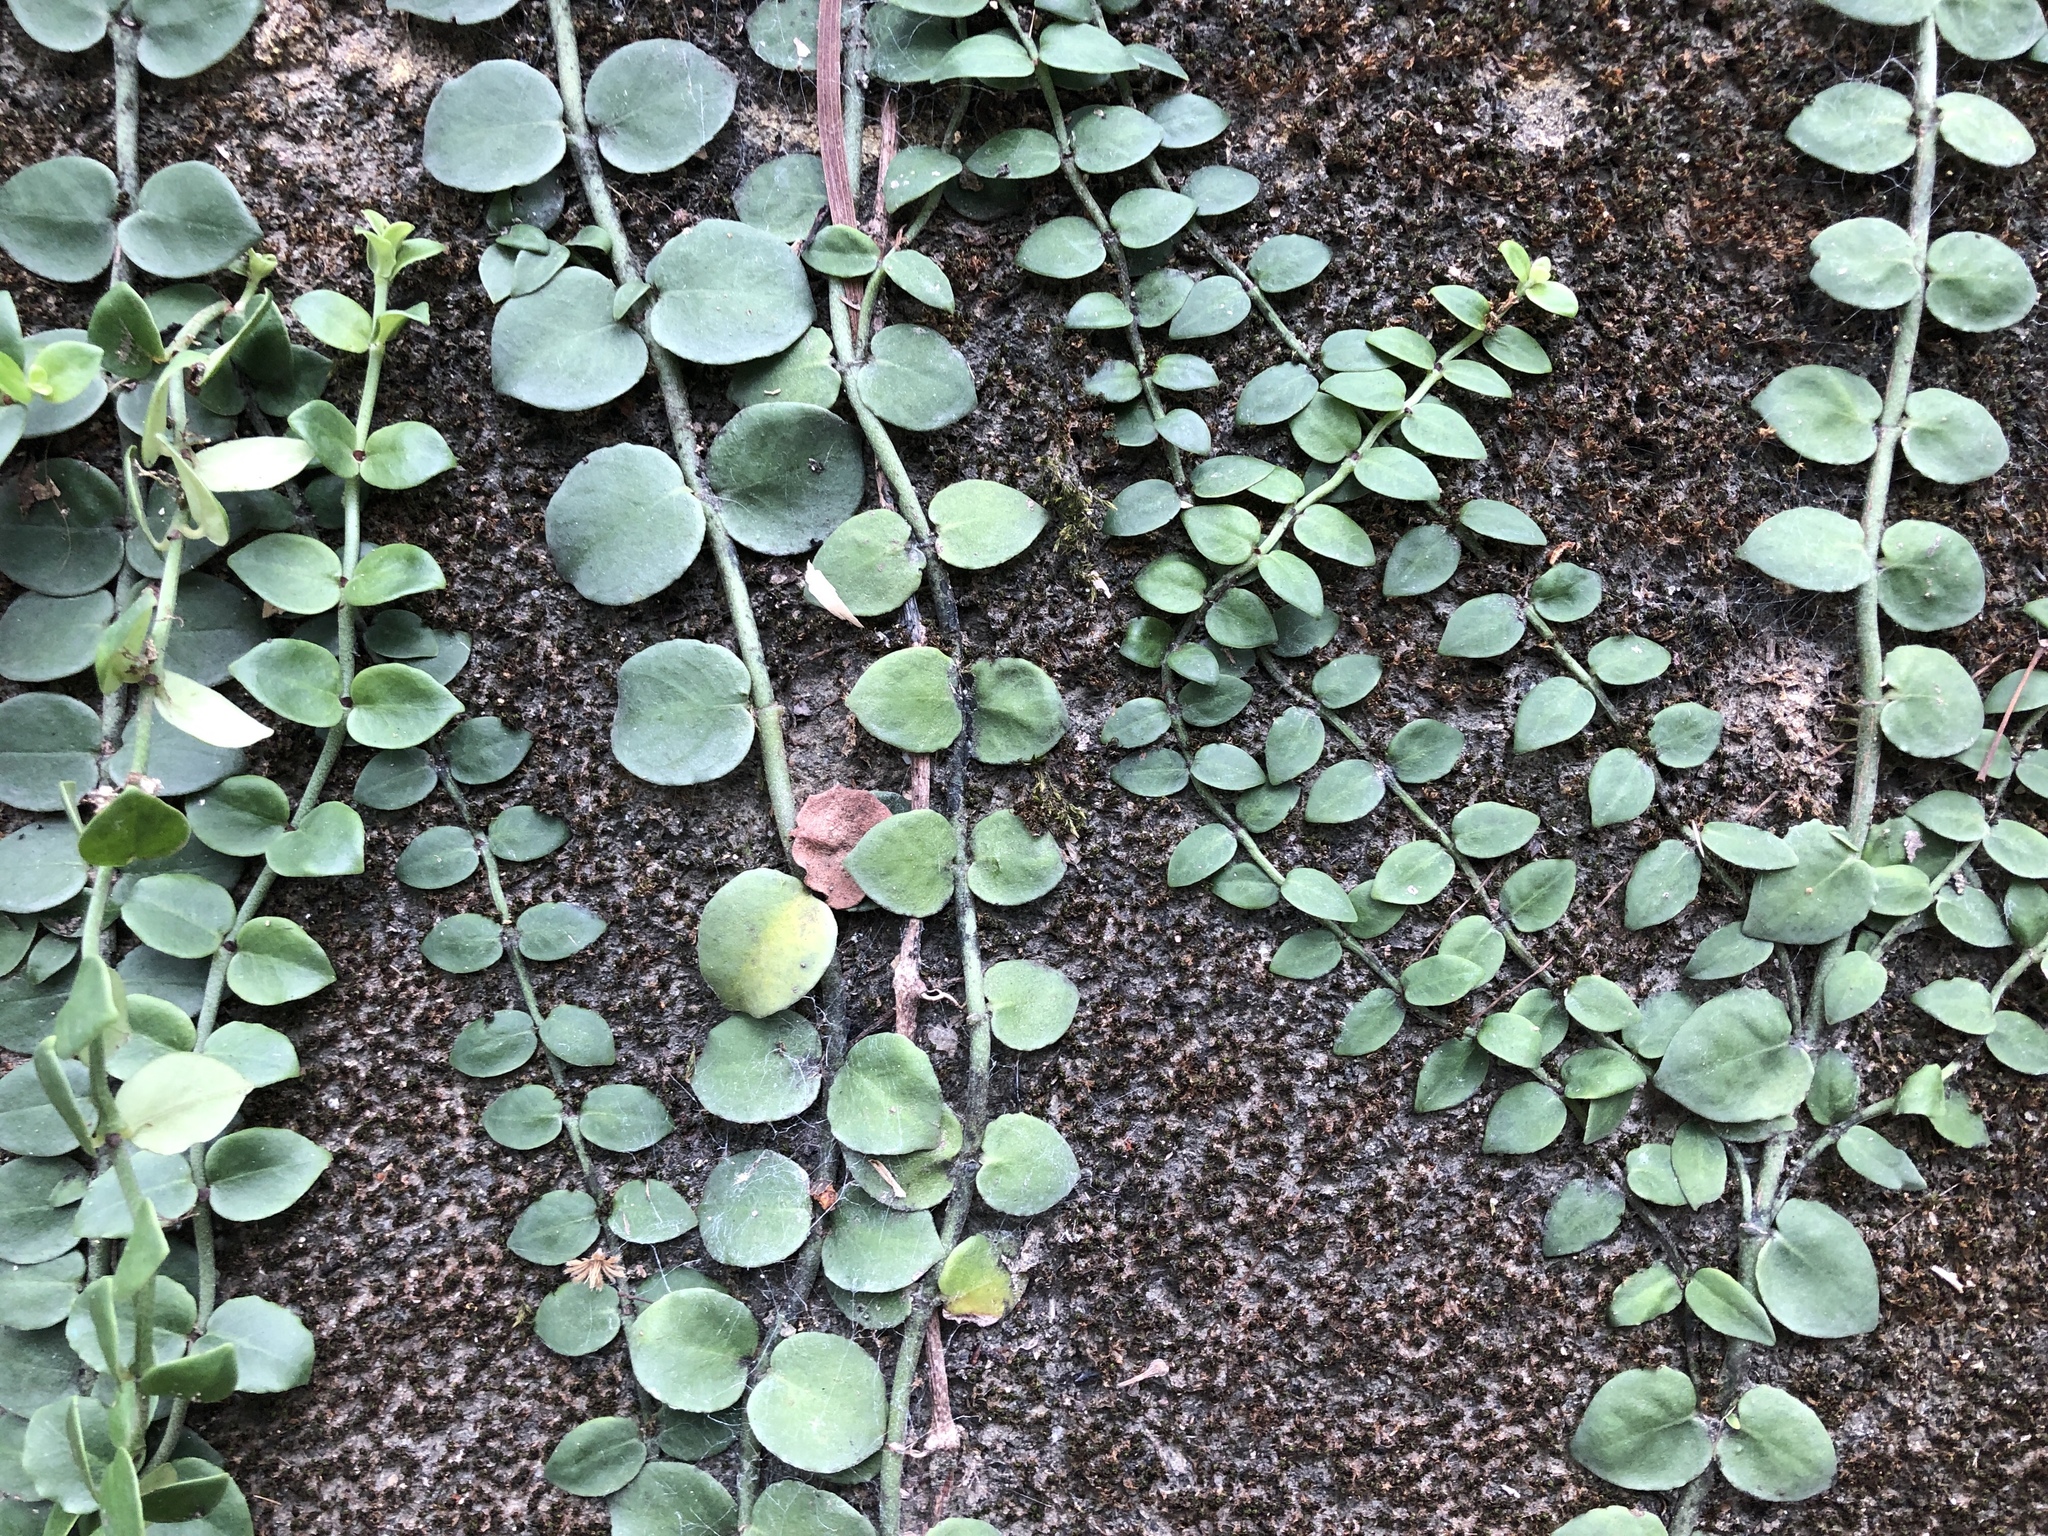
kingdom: Plantae
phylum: Tracheophyta
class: Magnoliopsida
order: Gentianales
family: Rubiaceae
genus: Psychotria
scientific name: Psychotria serpens
